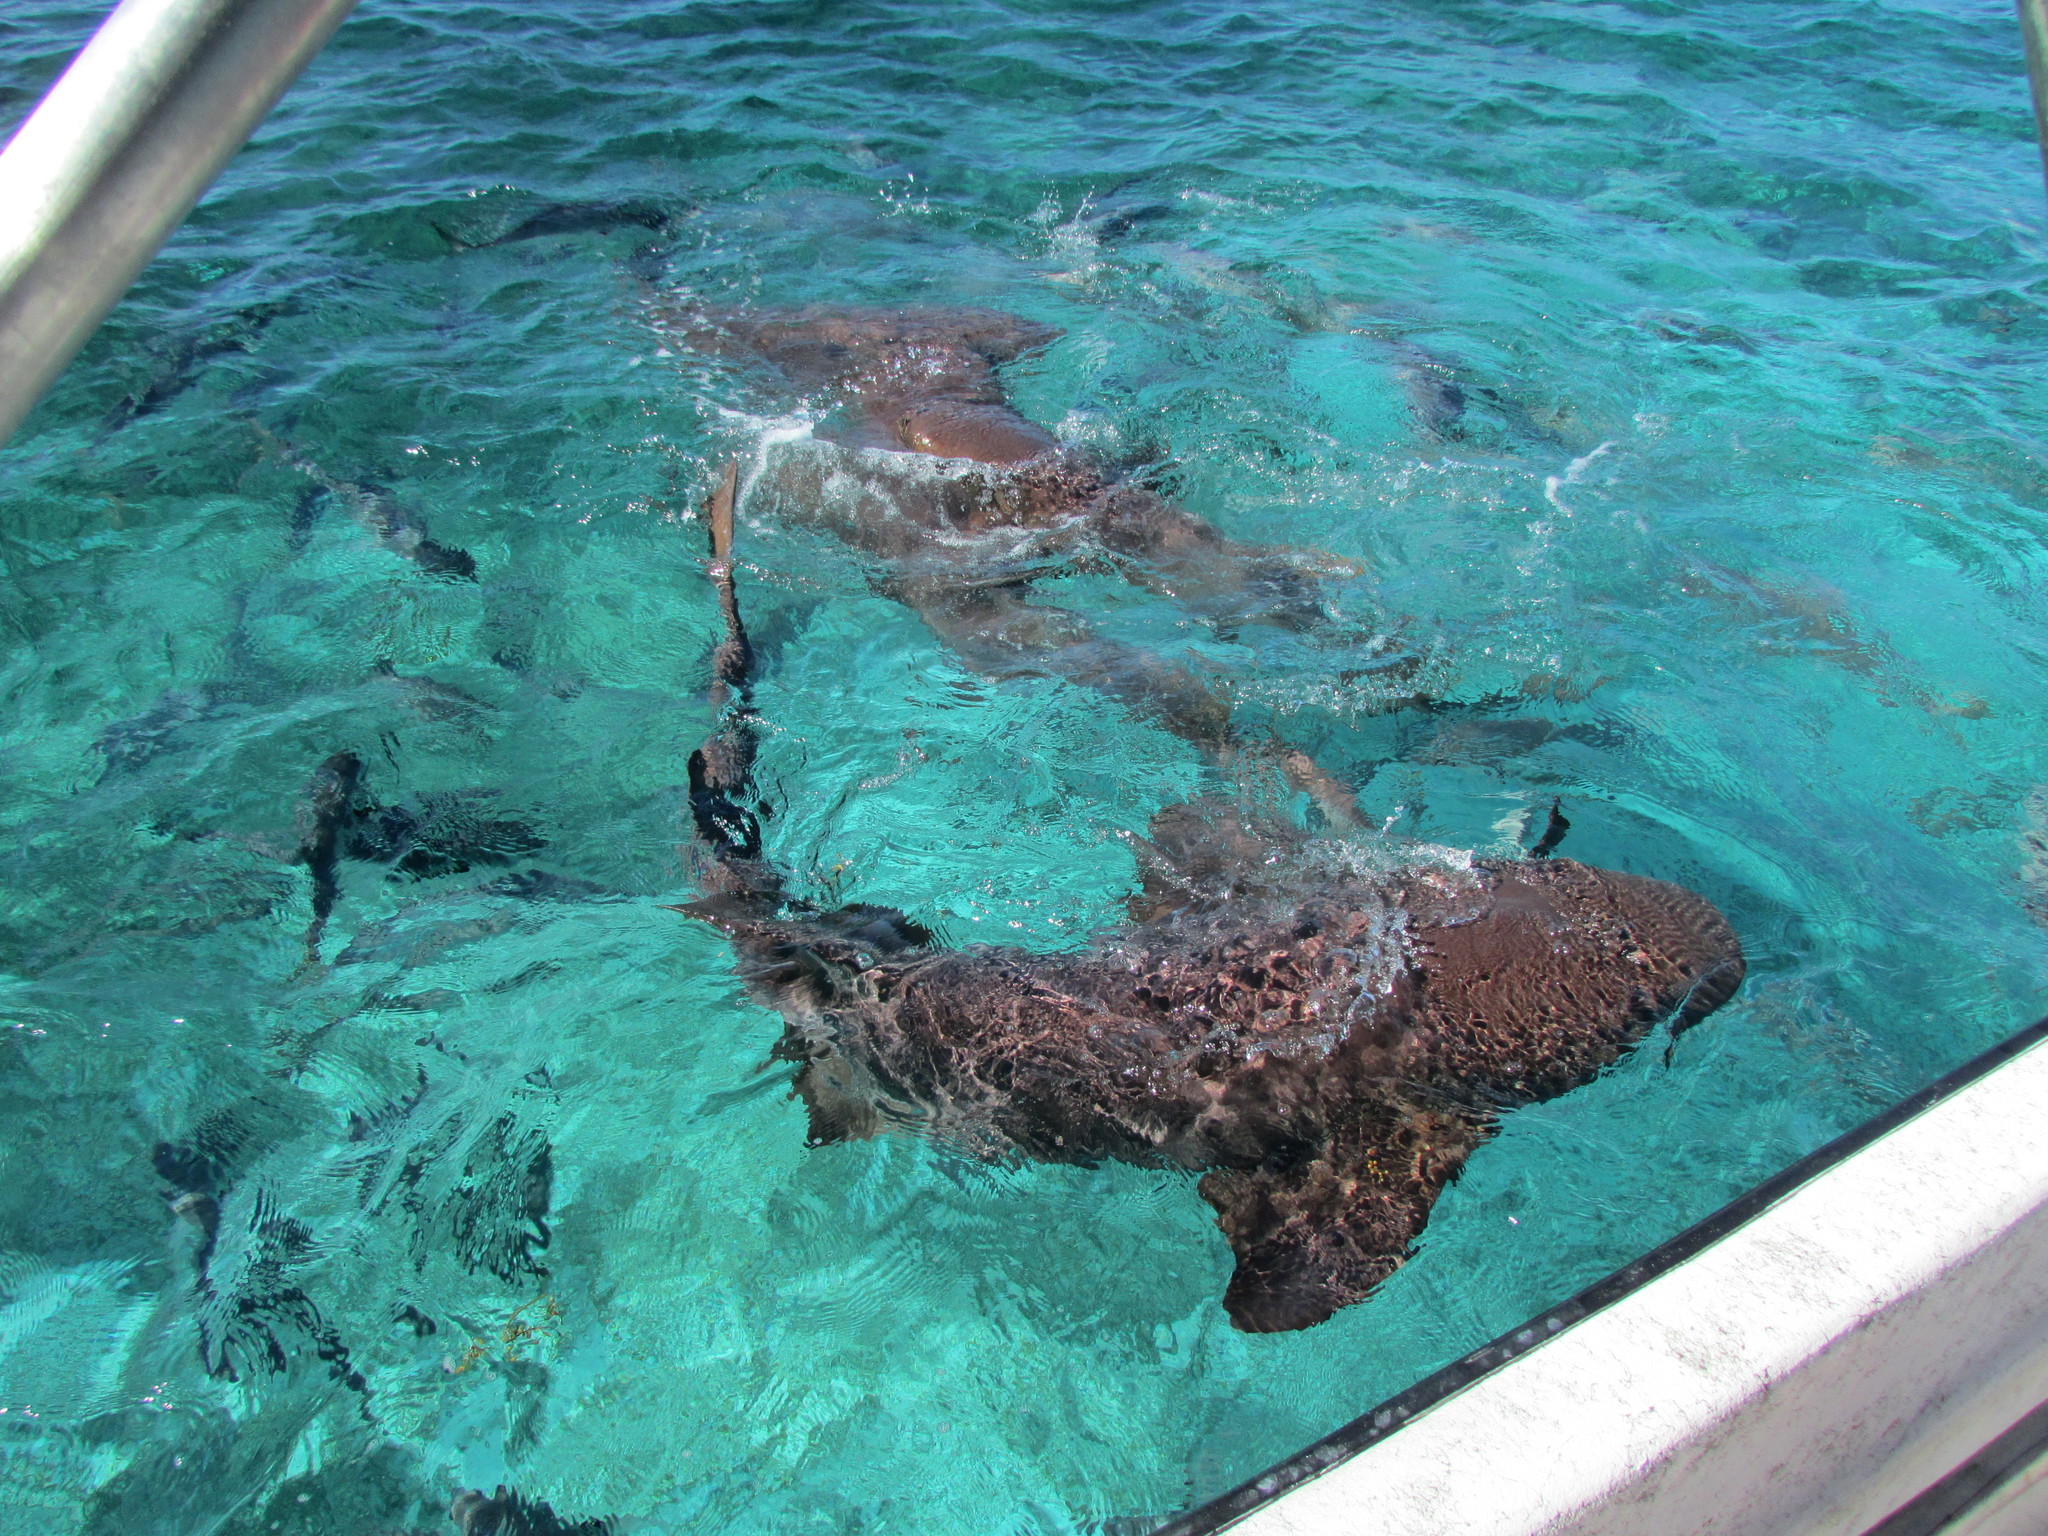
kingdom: Animalia
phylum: Chordata
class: Elasmobranchii
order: Orectolobiformes
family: Ginglymostomatidae
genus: Ginglymostoma
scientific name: Ginglymostoma cirratum
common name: Nurse shark
